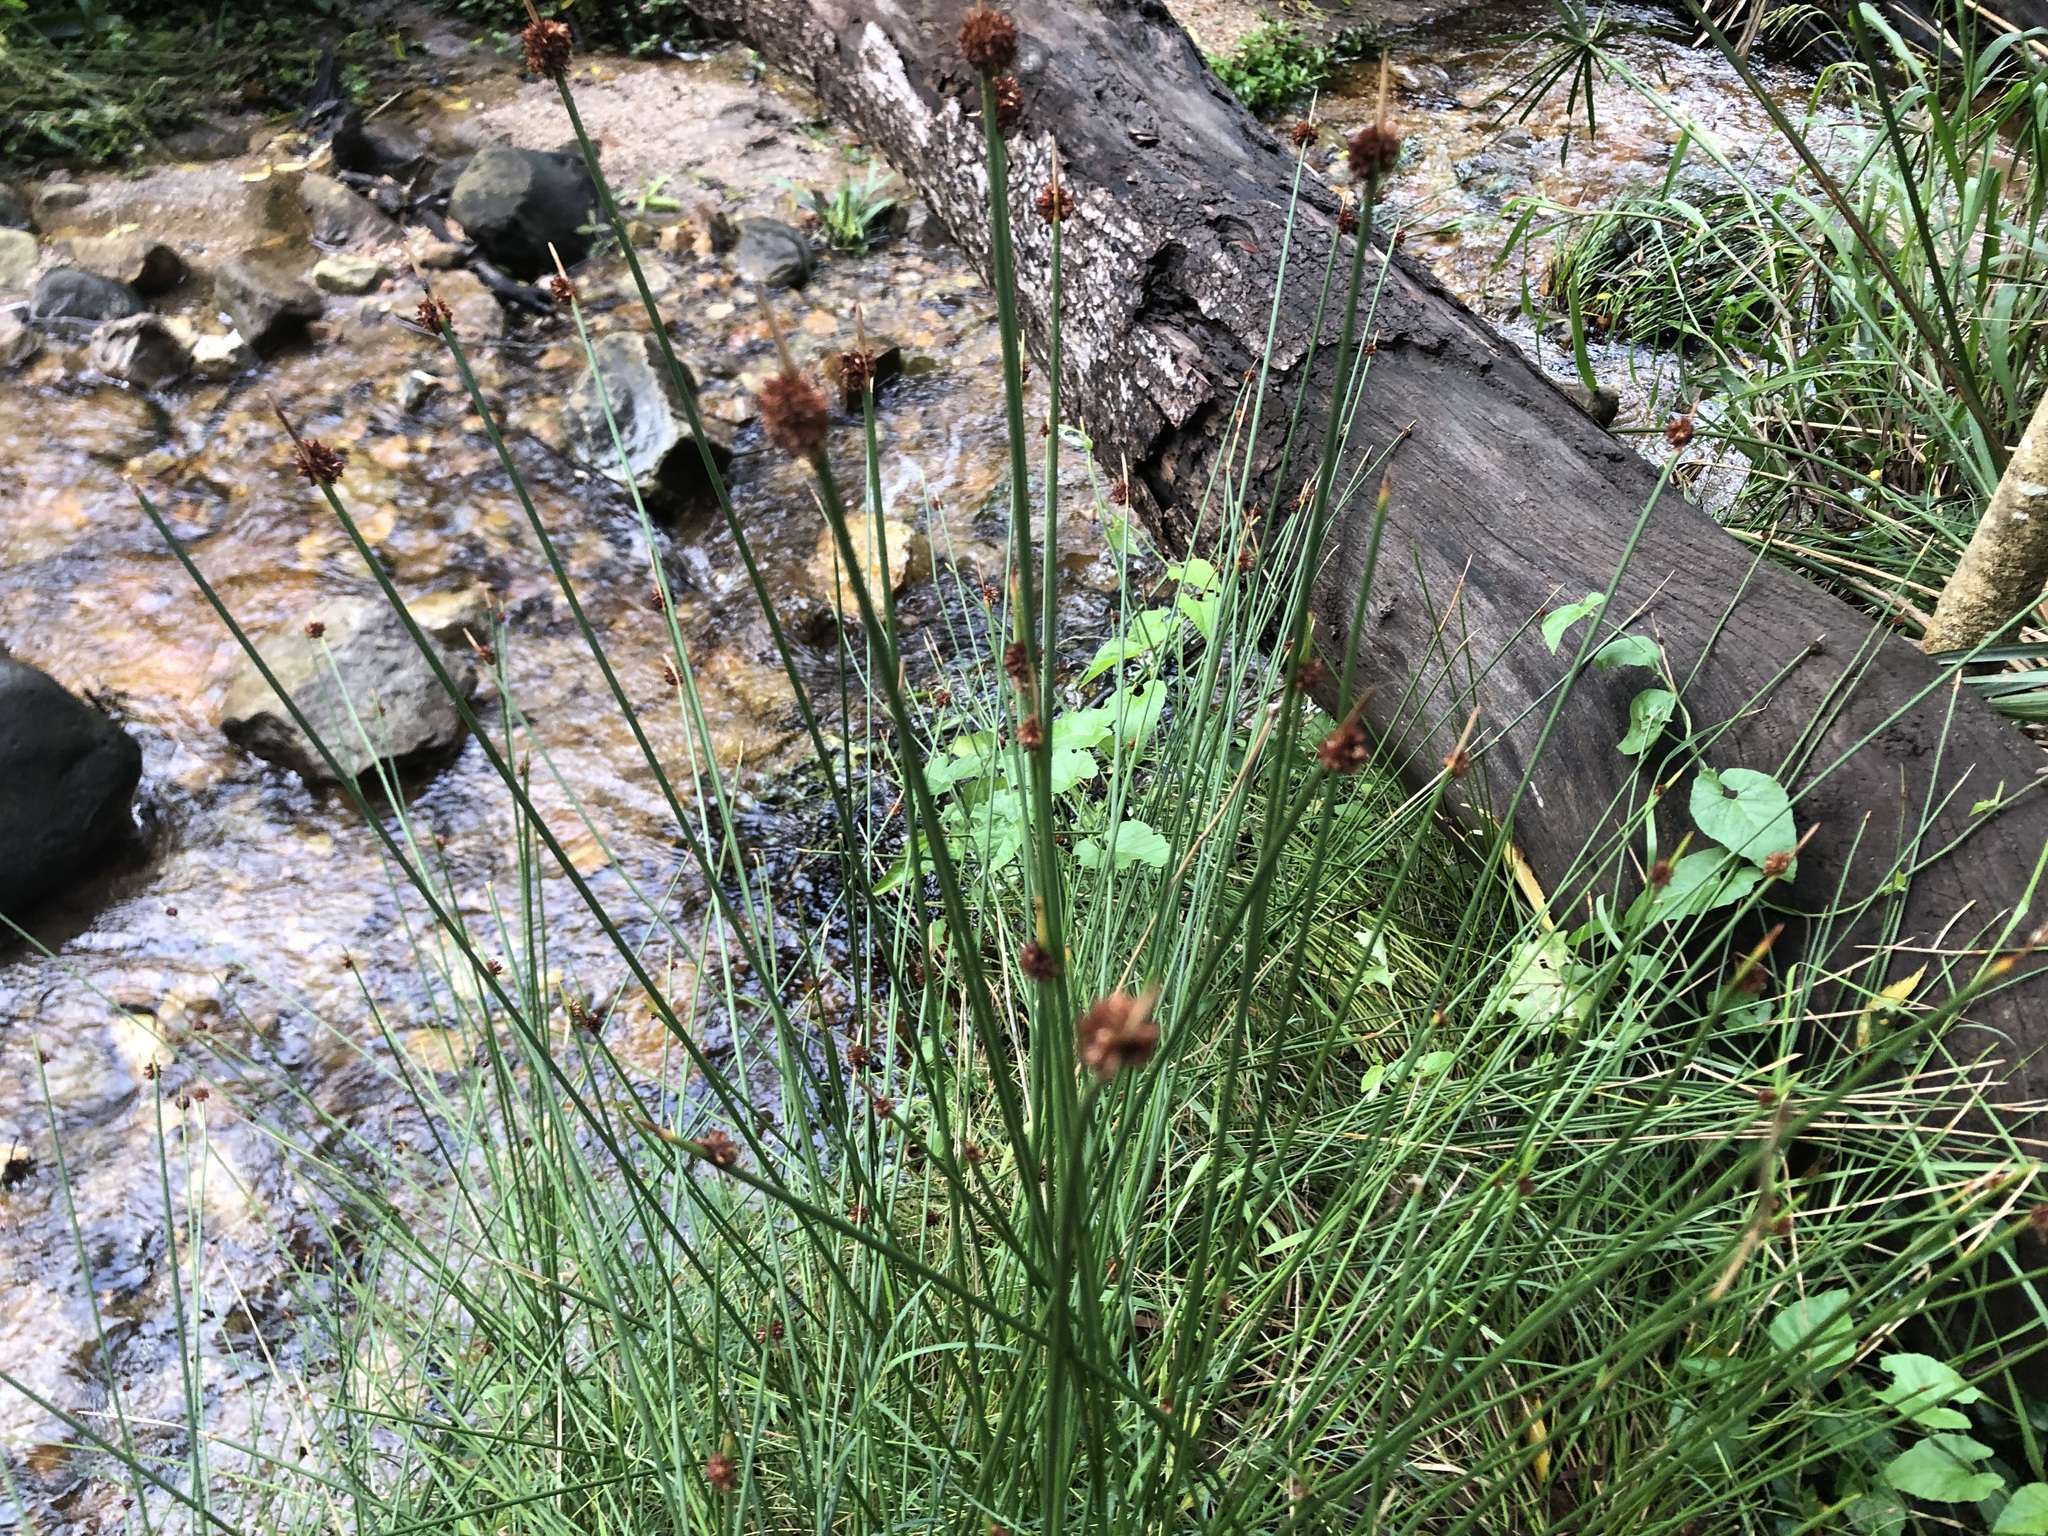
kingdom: Plantae
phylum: Tracheophyta
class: Liliopsida
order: Poales
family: Cyperaceae
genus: Ficinia
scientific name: Ficinia nodosa
